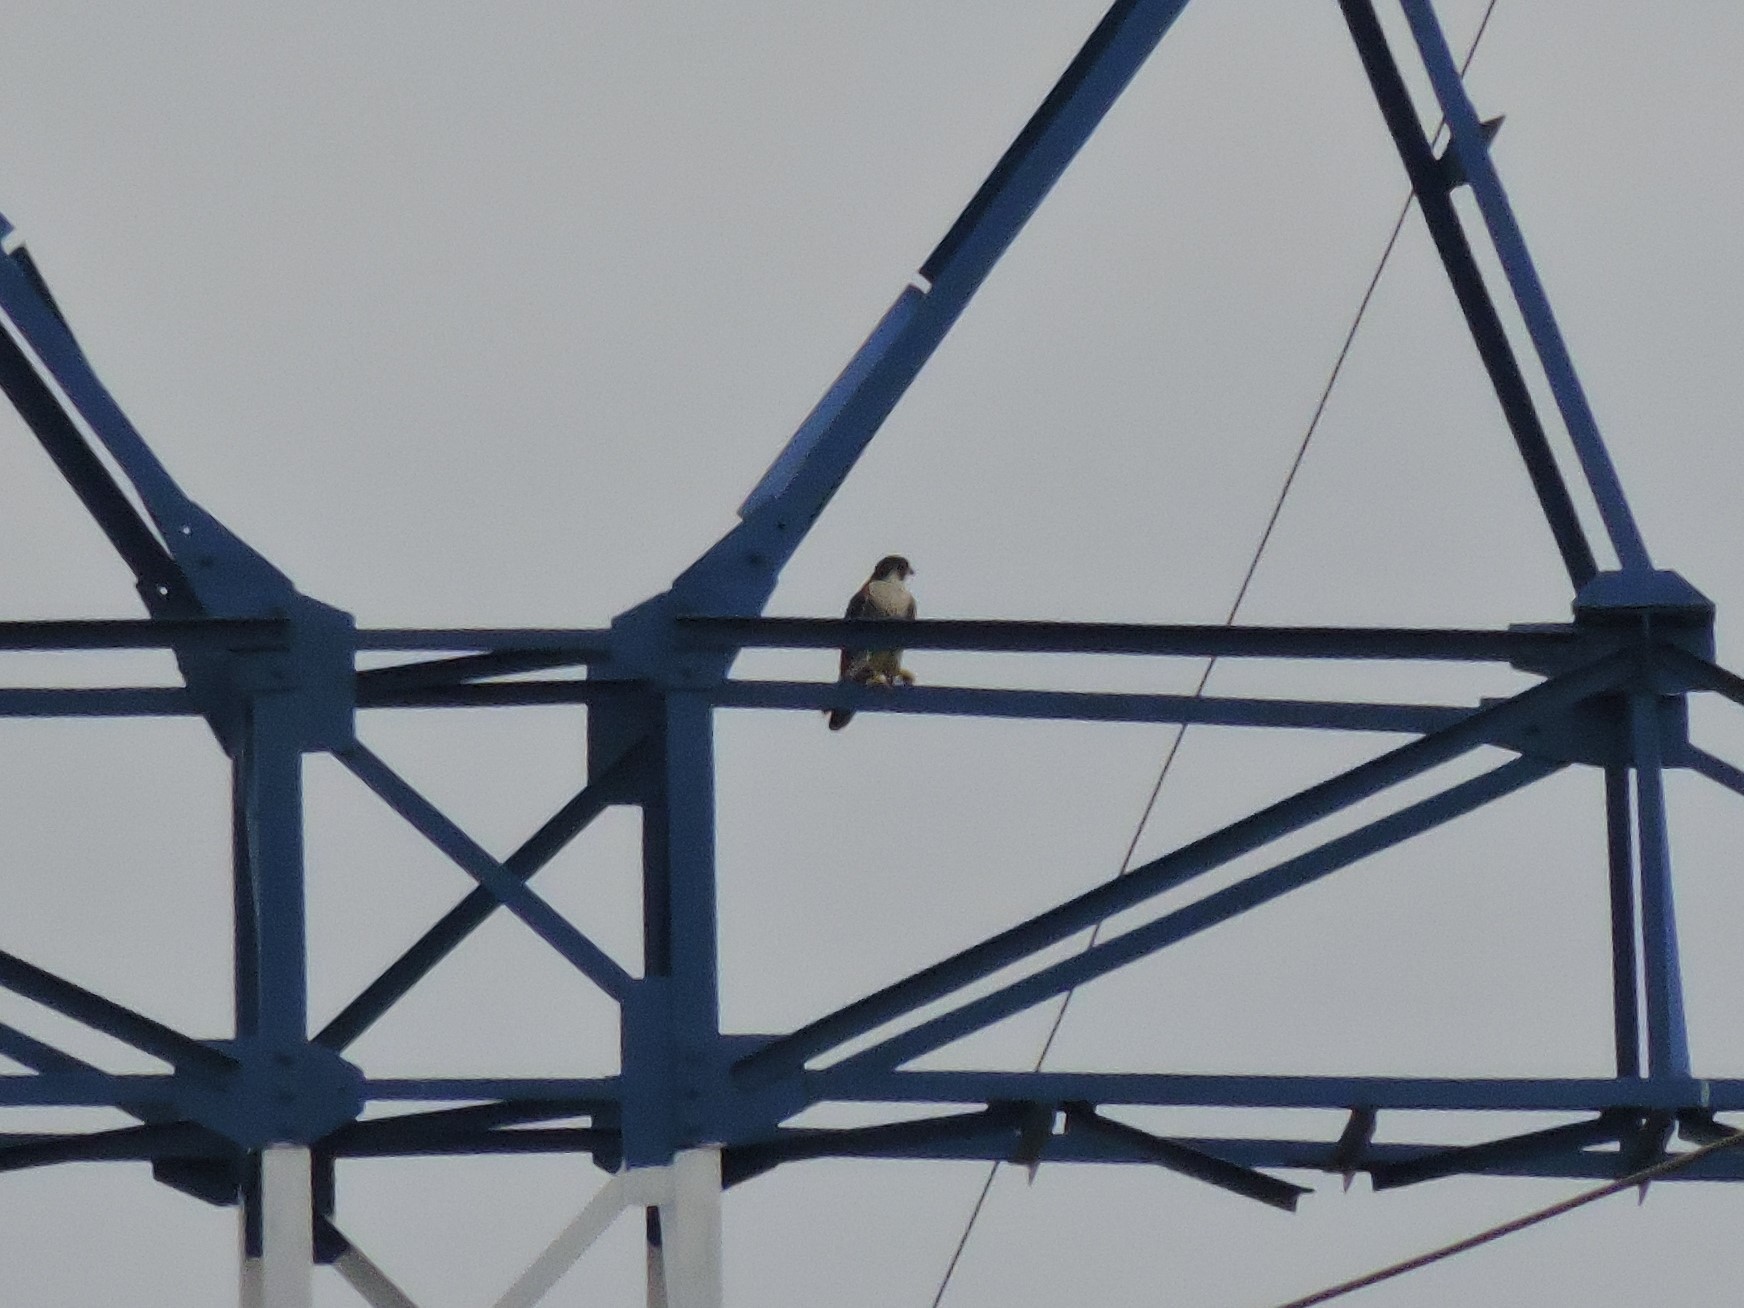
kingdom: Animalia
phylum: Chordata
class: Aves
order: Falconiformes
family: Falconidae
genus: Falco
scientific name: Falco peregrinus
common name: Peregrine falcon
